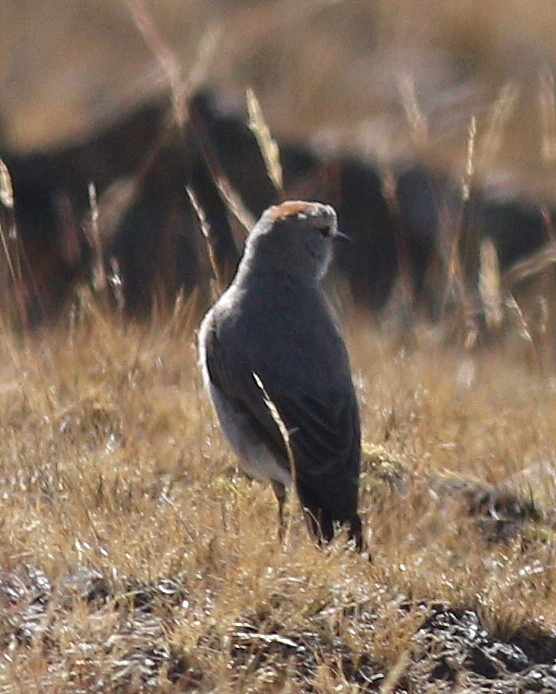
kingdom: Animalia
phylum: Chordata
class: Aves
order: Passeriformes
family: Tyrannidae
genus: Muscisaxicola
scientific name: Muscisaxicola rufivertex
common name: Rufous-naped ground tyrant
